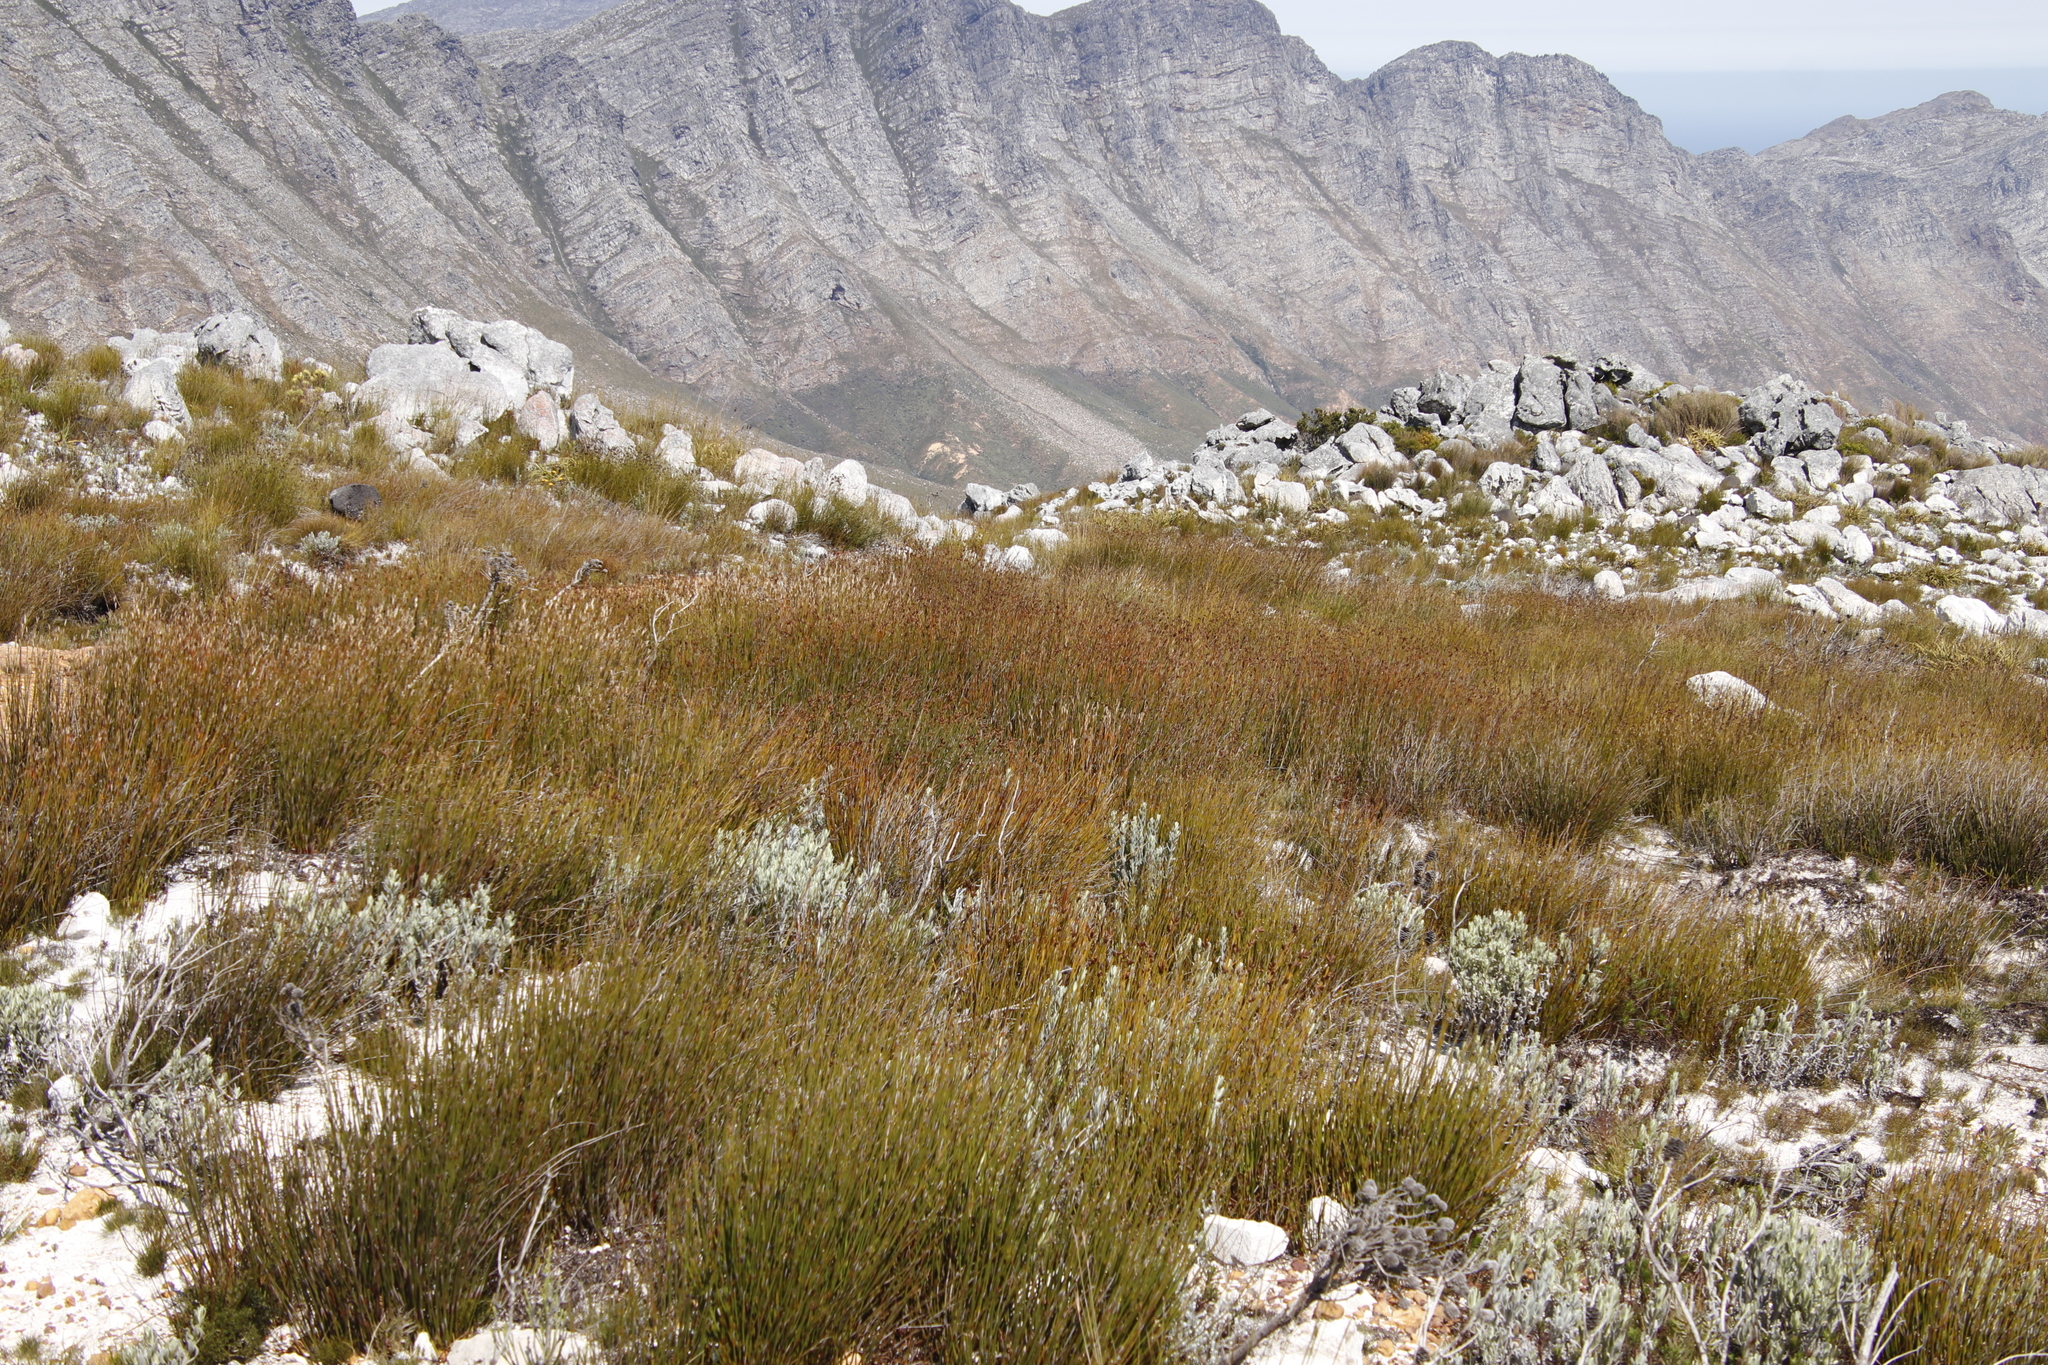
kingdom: Plantae
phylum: Tracheophyta
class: Liliopsida
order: Poales
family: Restionaceae
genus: Nevillea
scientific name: Nevillea obtusissimus
